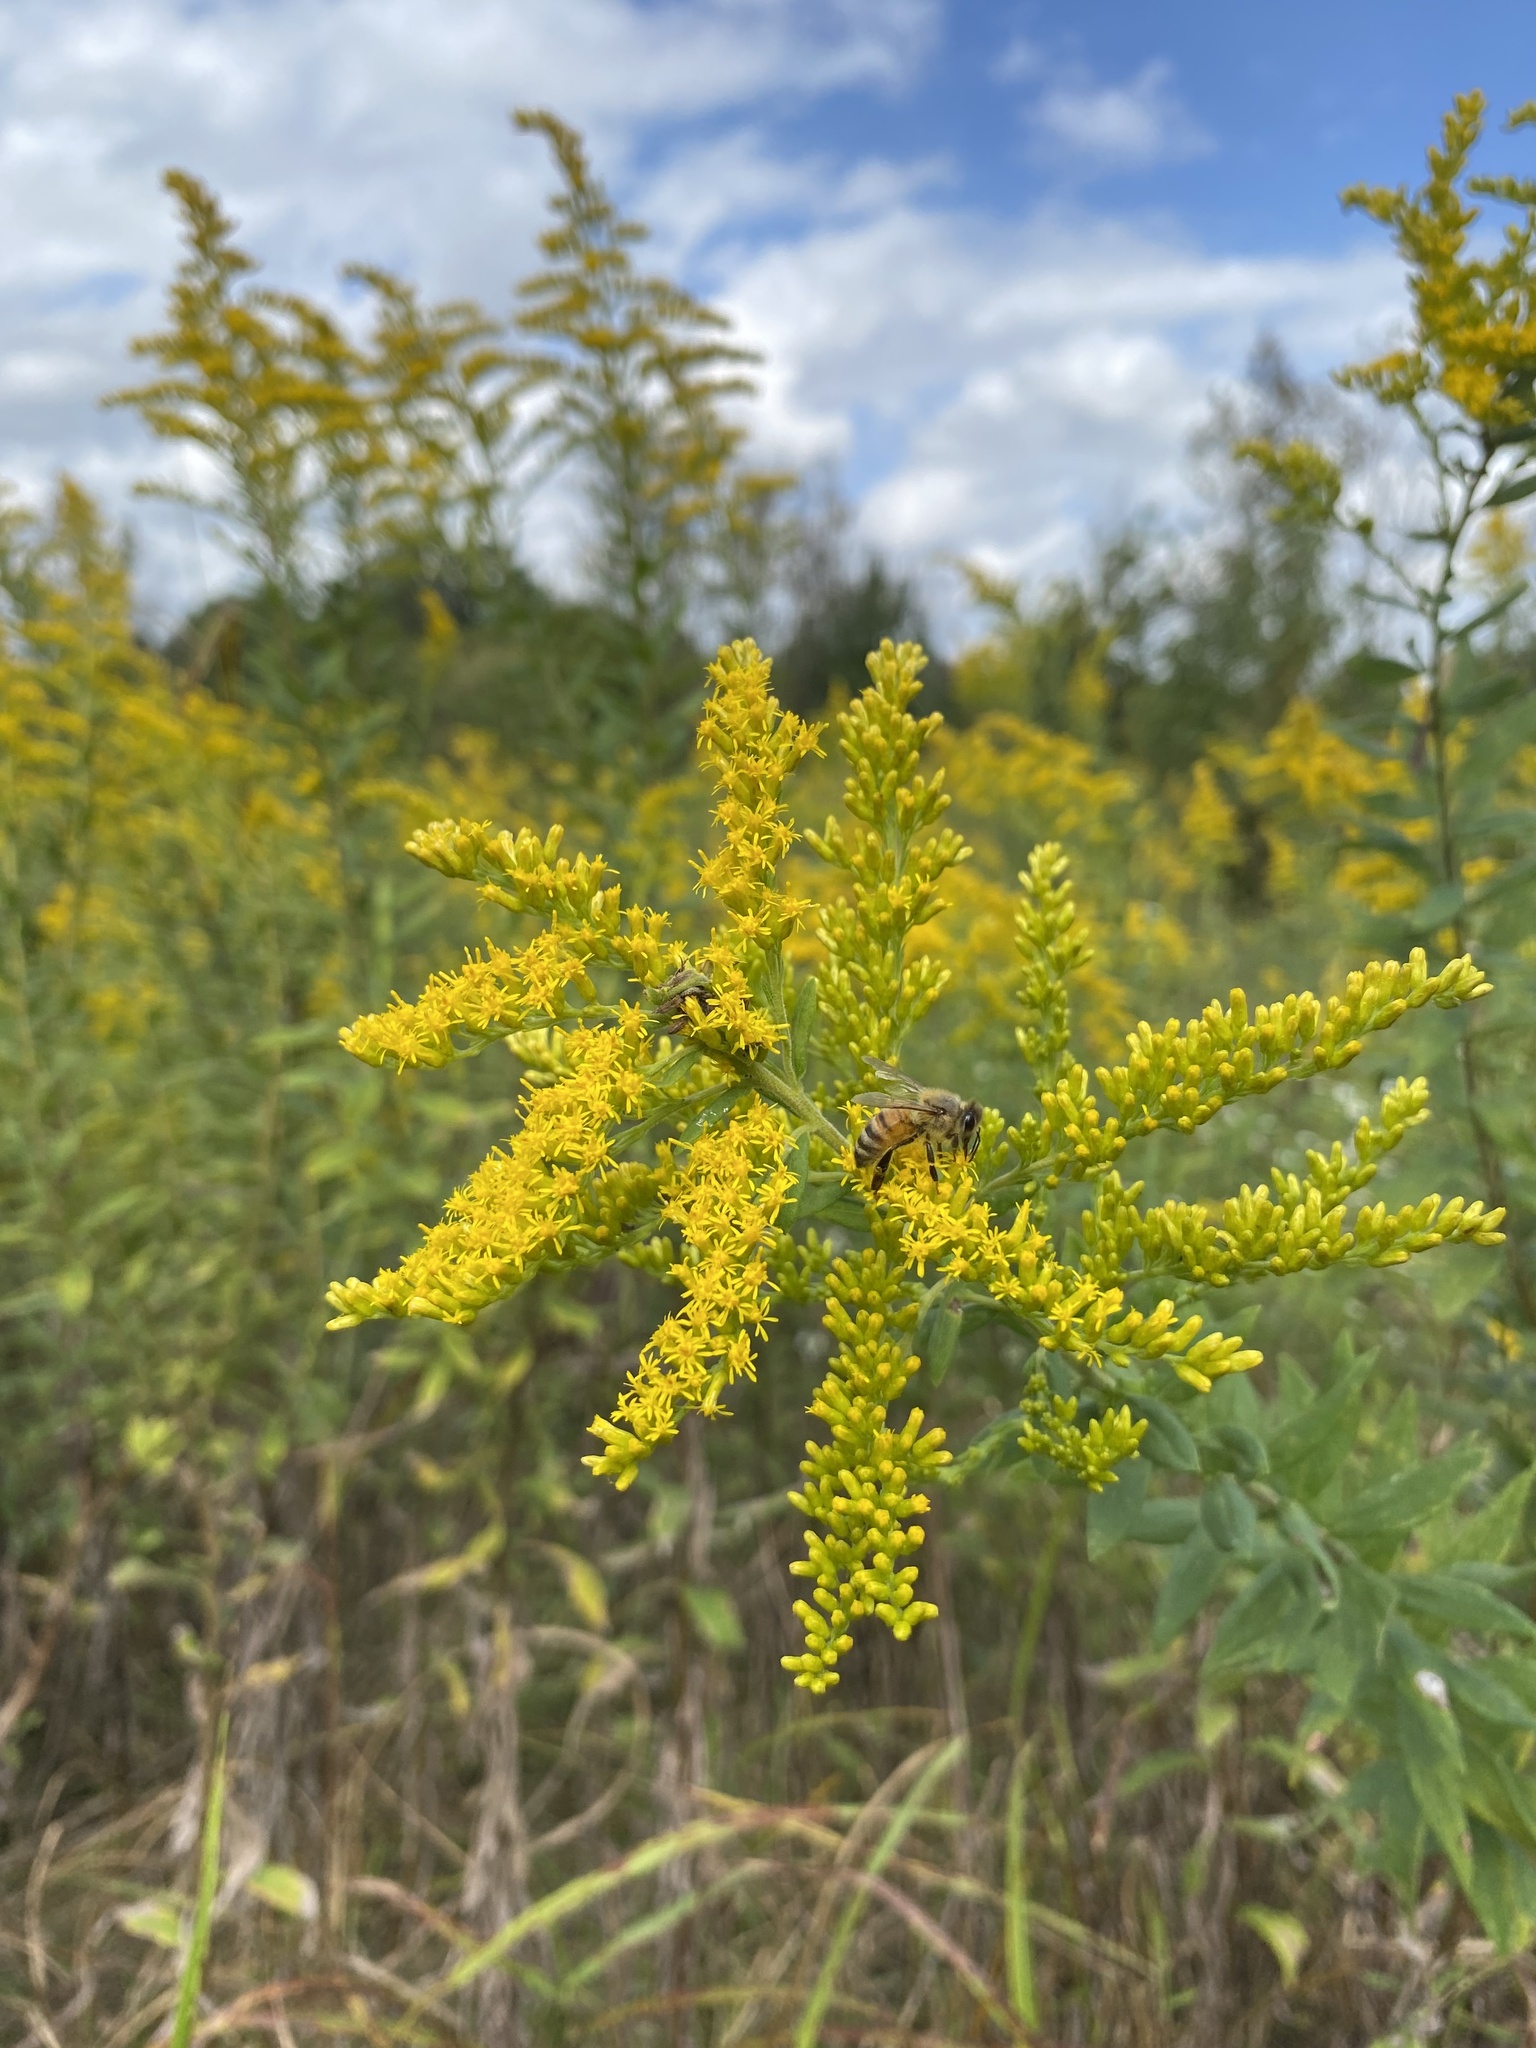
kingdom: Plantae
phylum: Tracheophyta
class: Magnoliopsida
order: Asterales
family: Asteraceae
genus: Solidago
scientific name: Solidago altissima
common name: Late goldenrod
